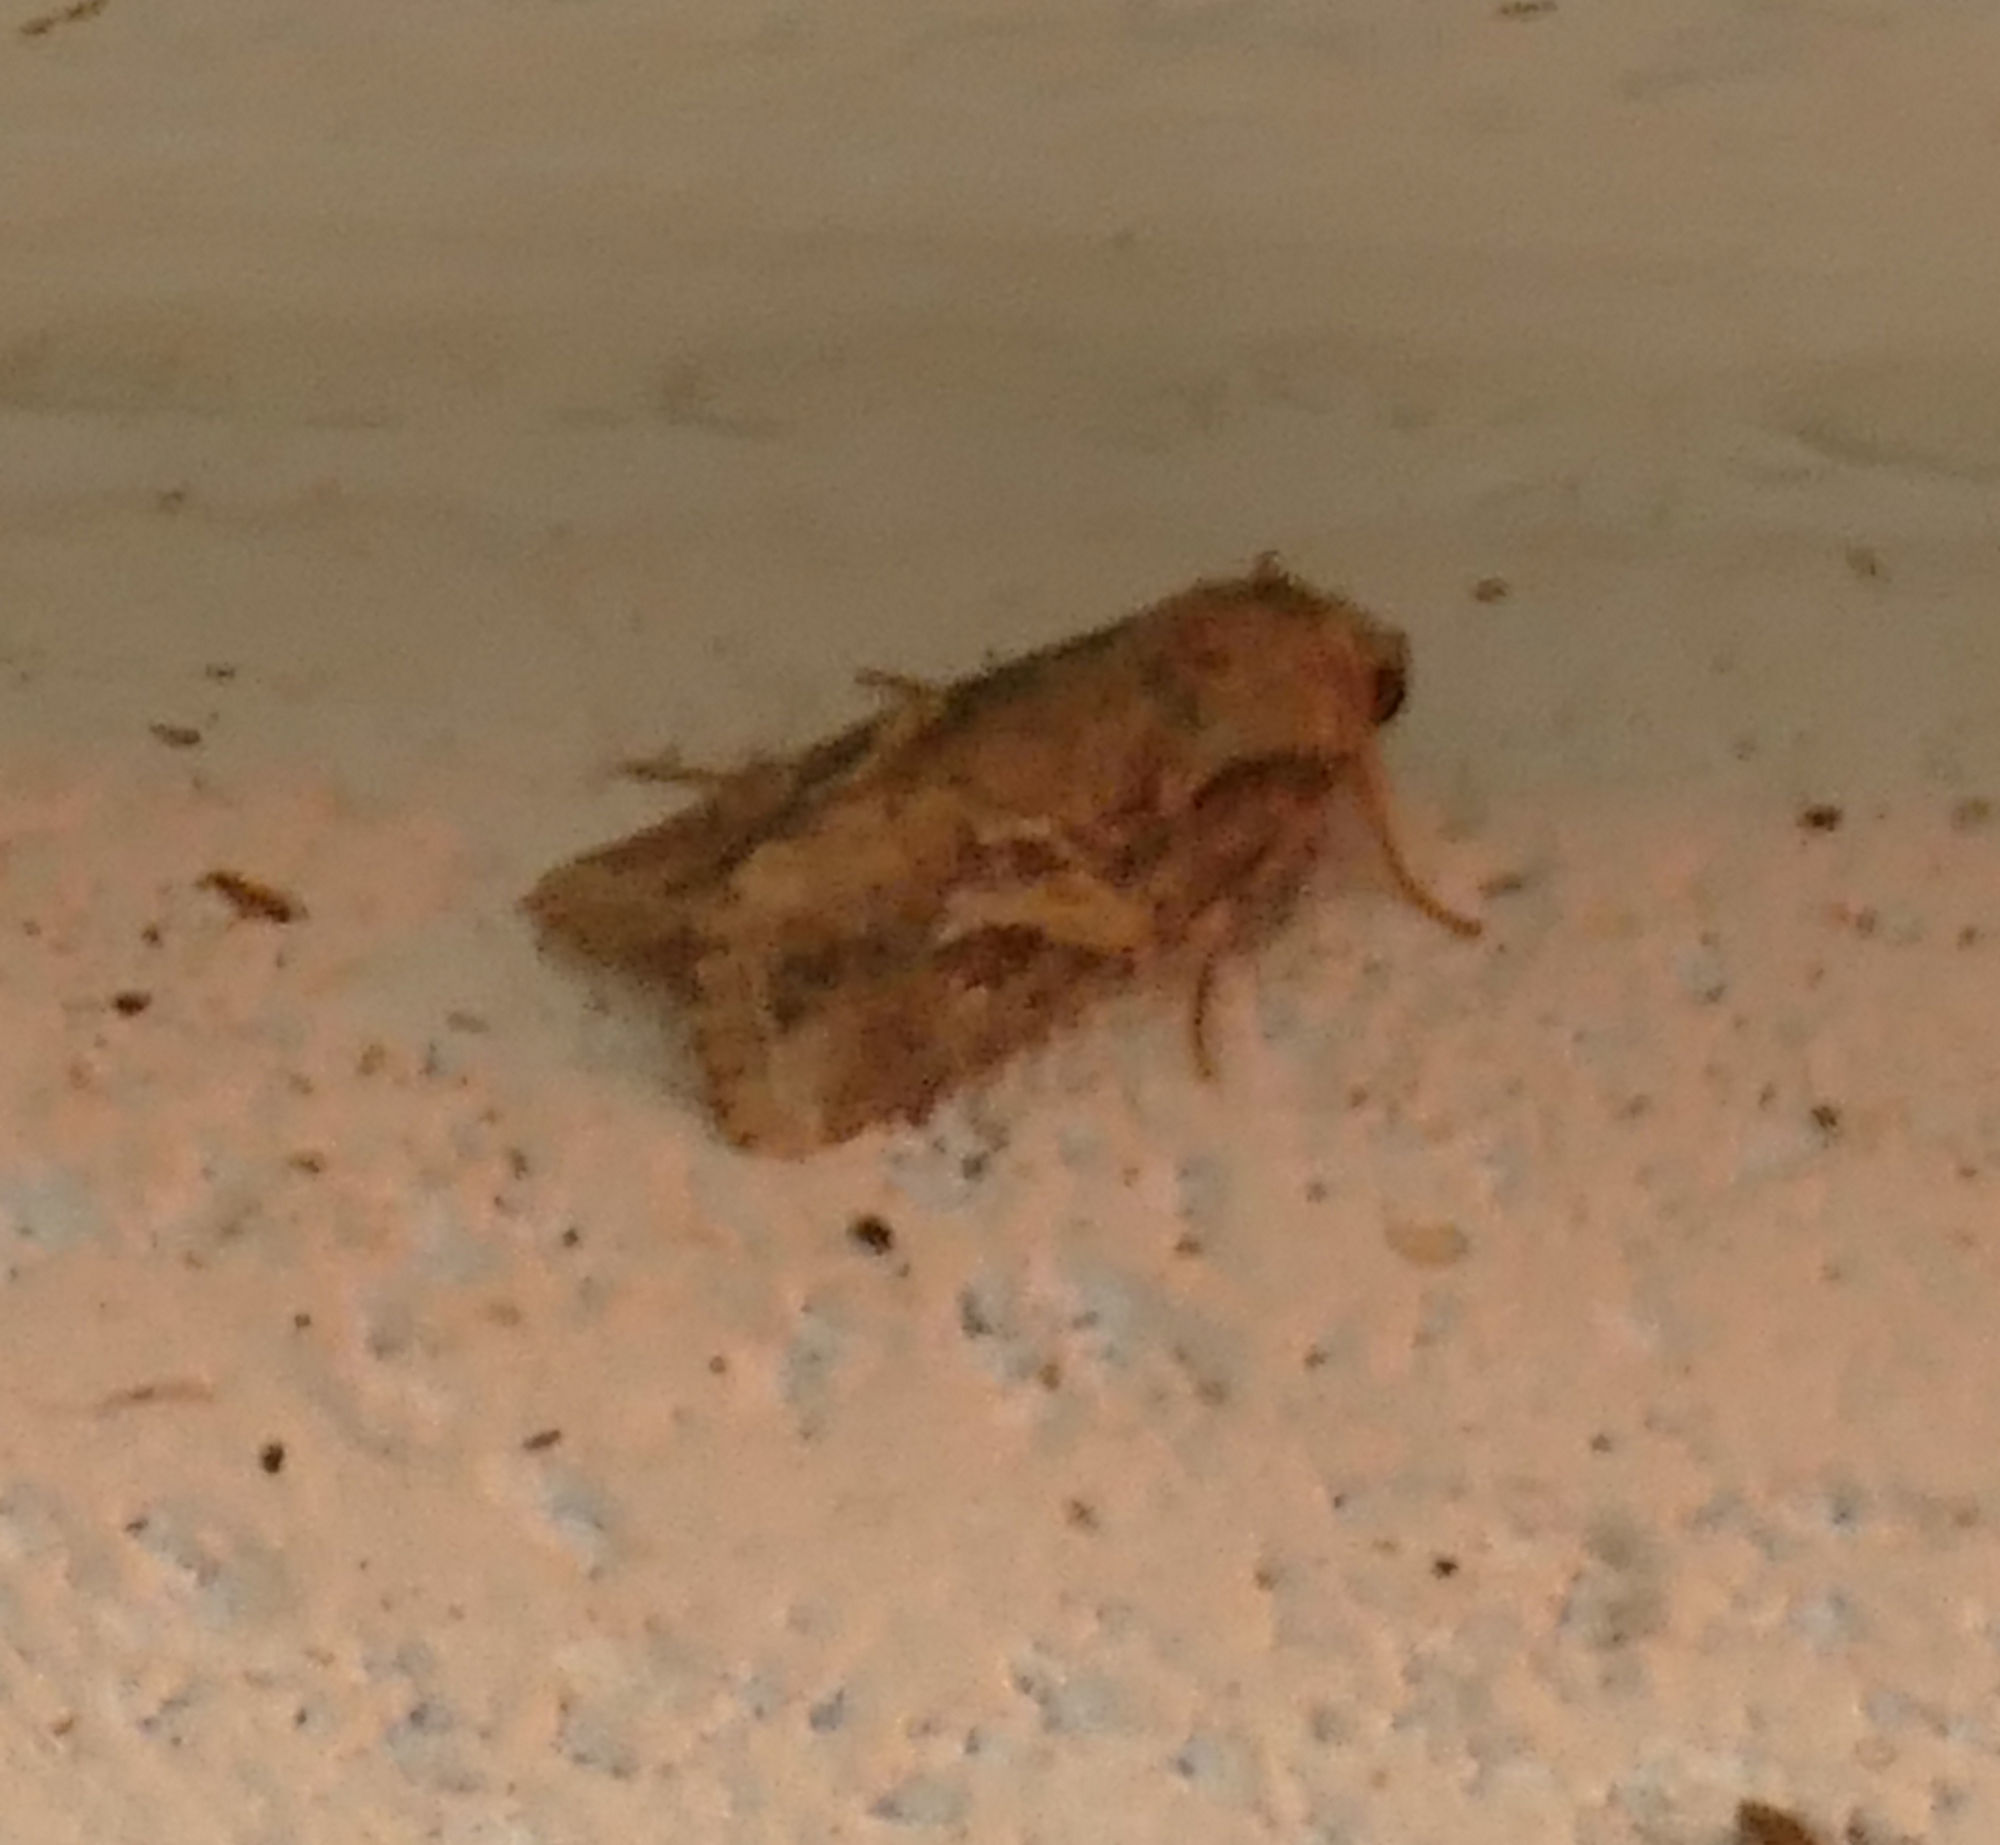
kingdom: Animalia
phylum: Arthropoda
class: Insecta
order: Lepidoptera
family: Noctuidae
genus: Spodoptera
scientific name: Spodoptera frugiperda
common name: Fall armyworm
